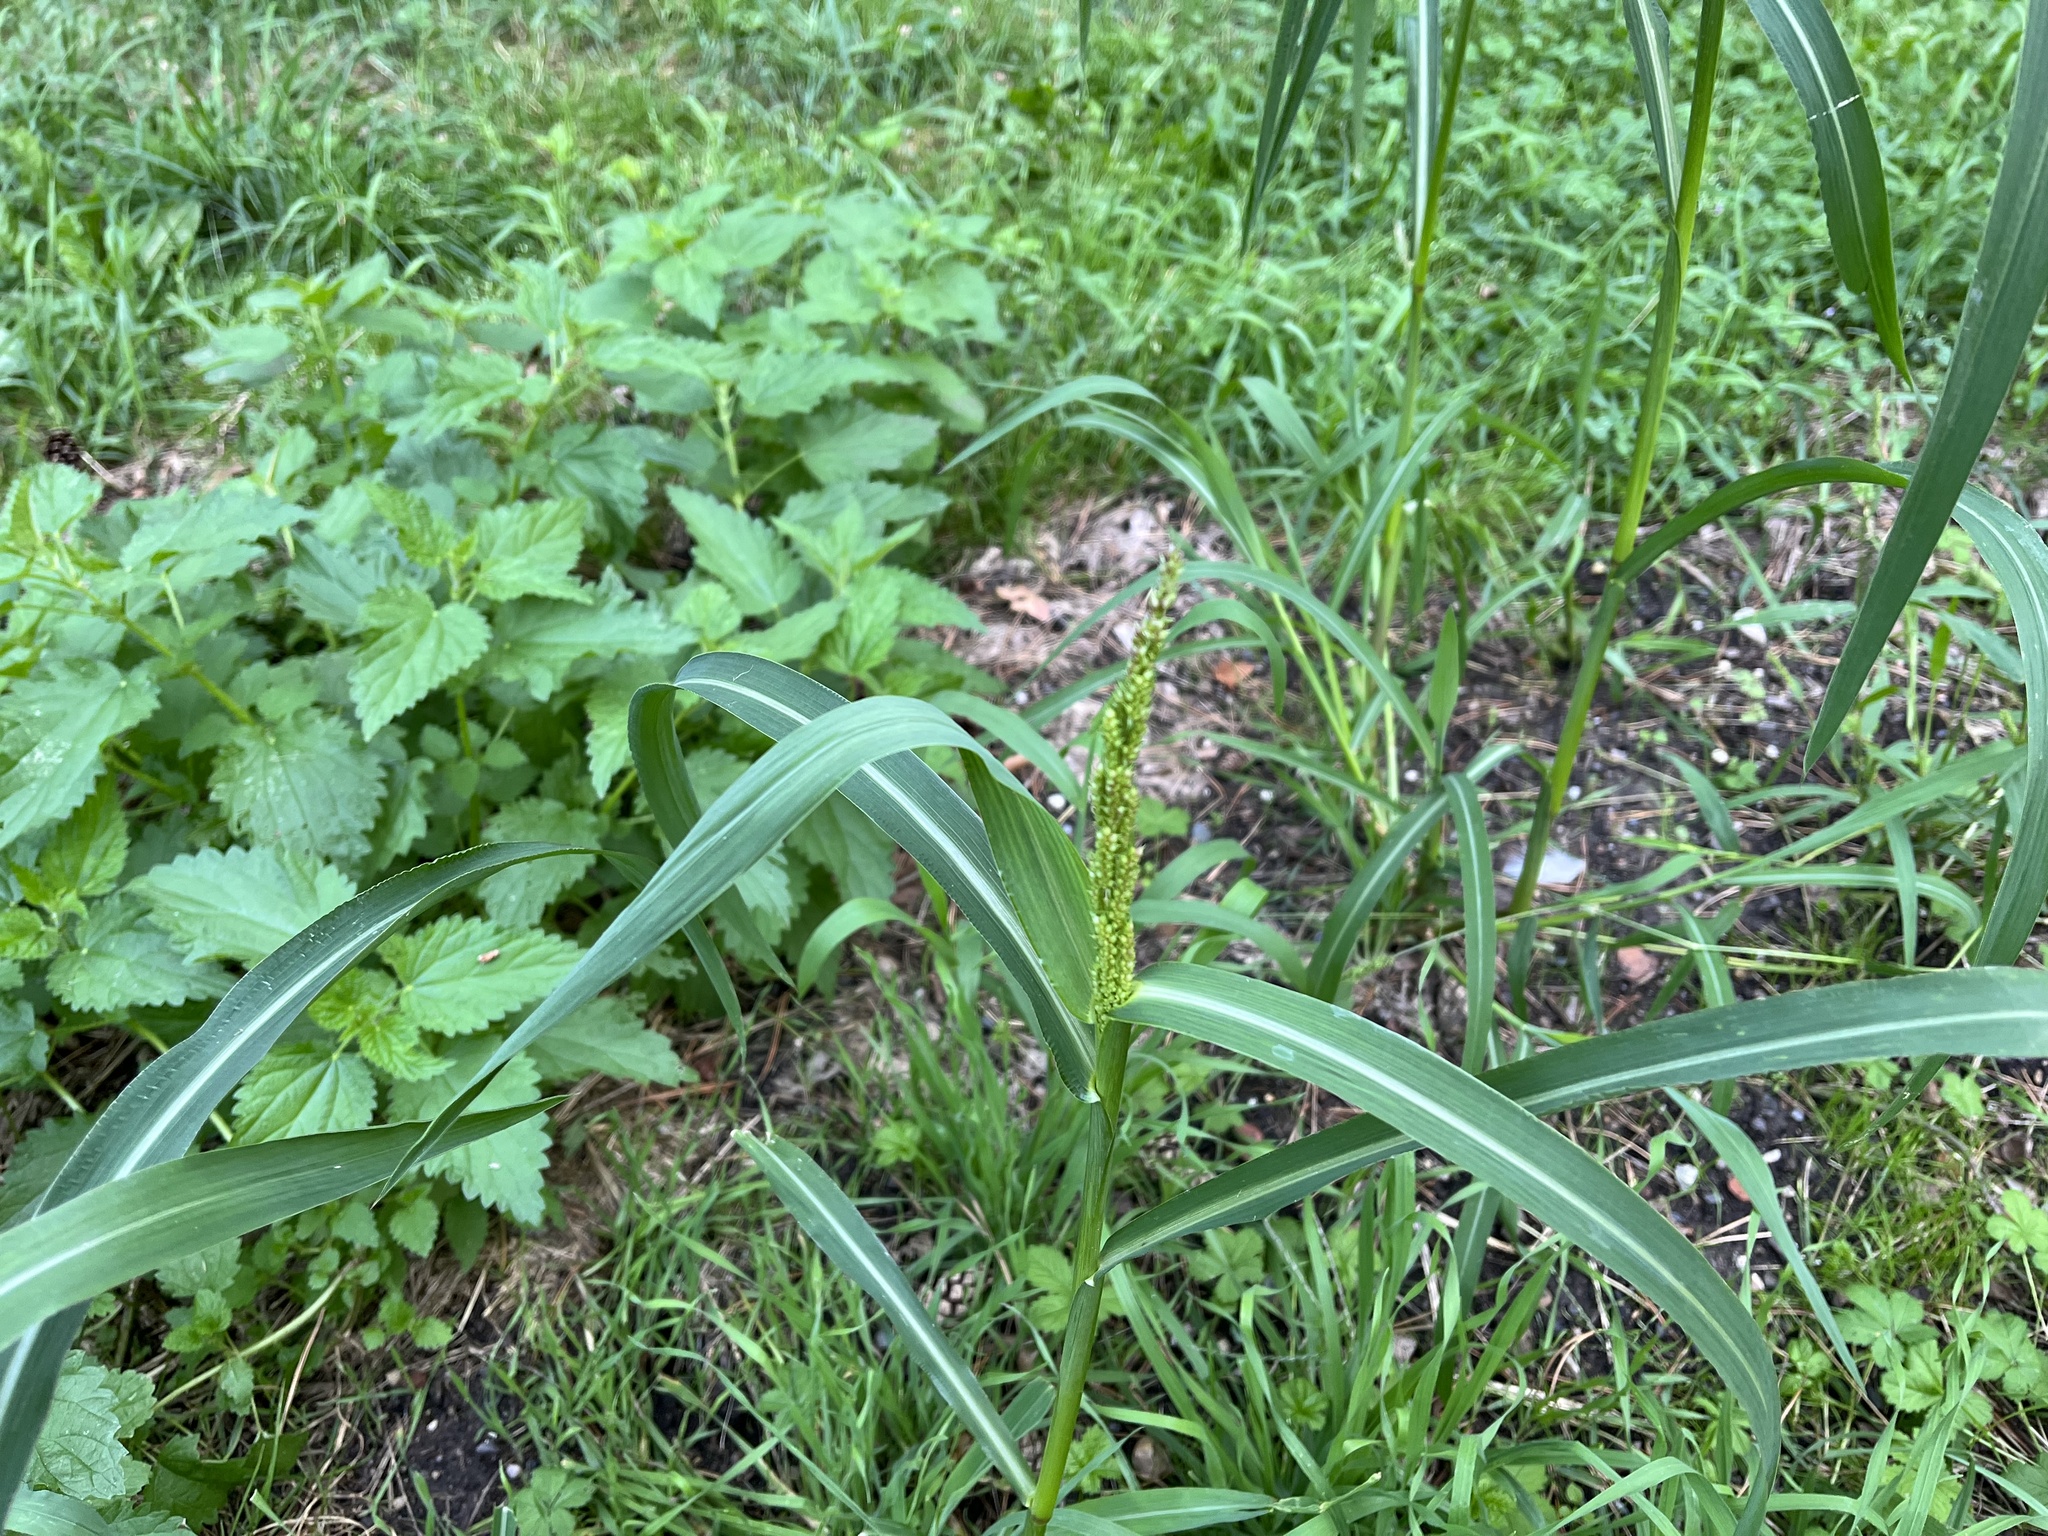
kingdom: Plantae
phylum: Tracheophyta
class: Liliopsida
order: Poales
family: Poaceae
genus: Echinochloa
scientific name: Echinochloa crus-galli
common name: Cockspur
